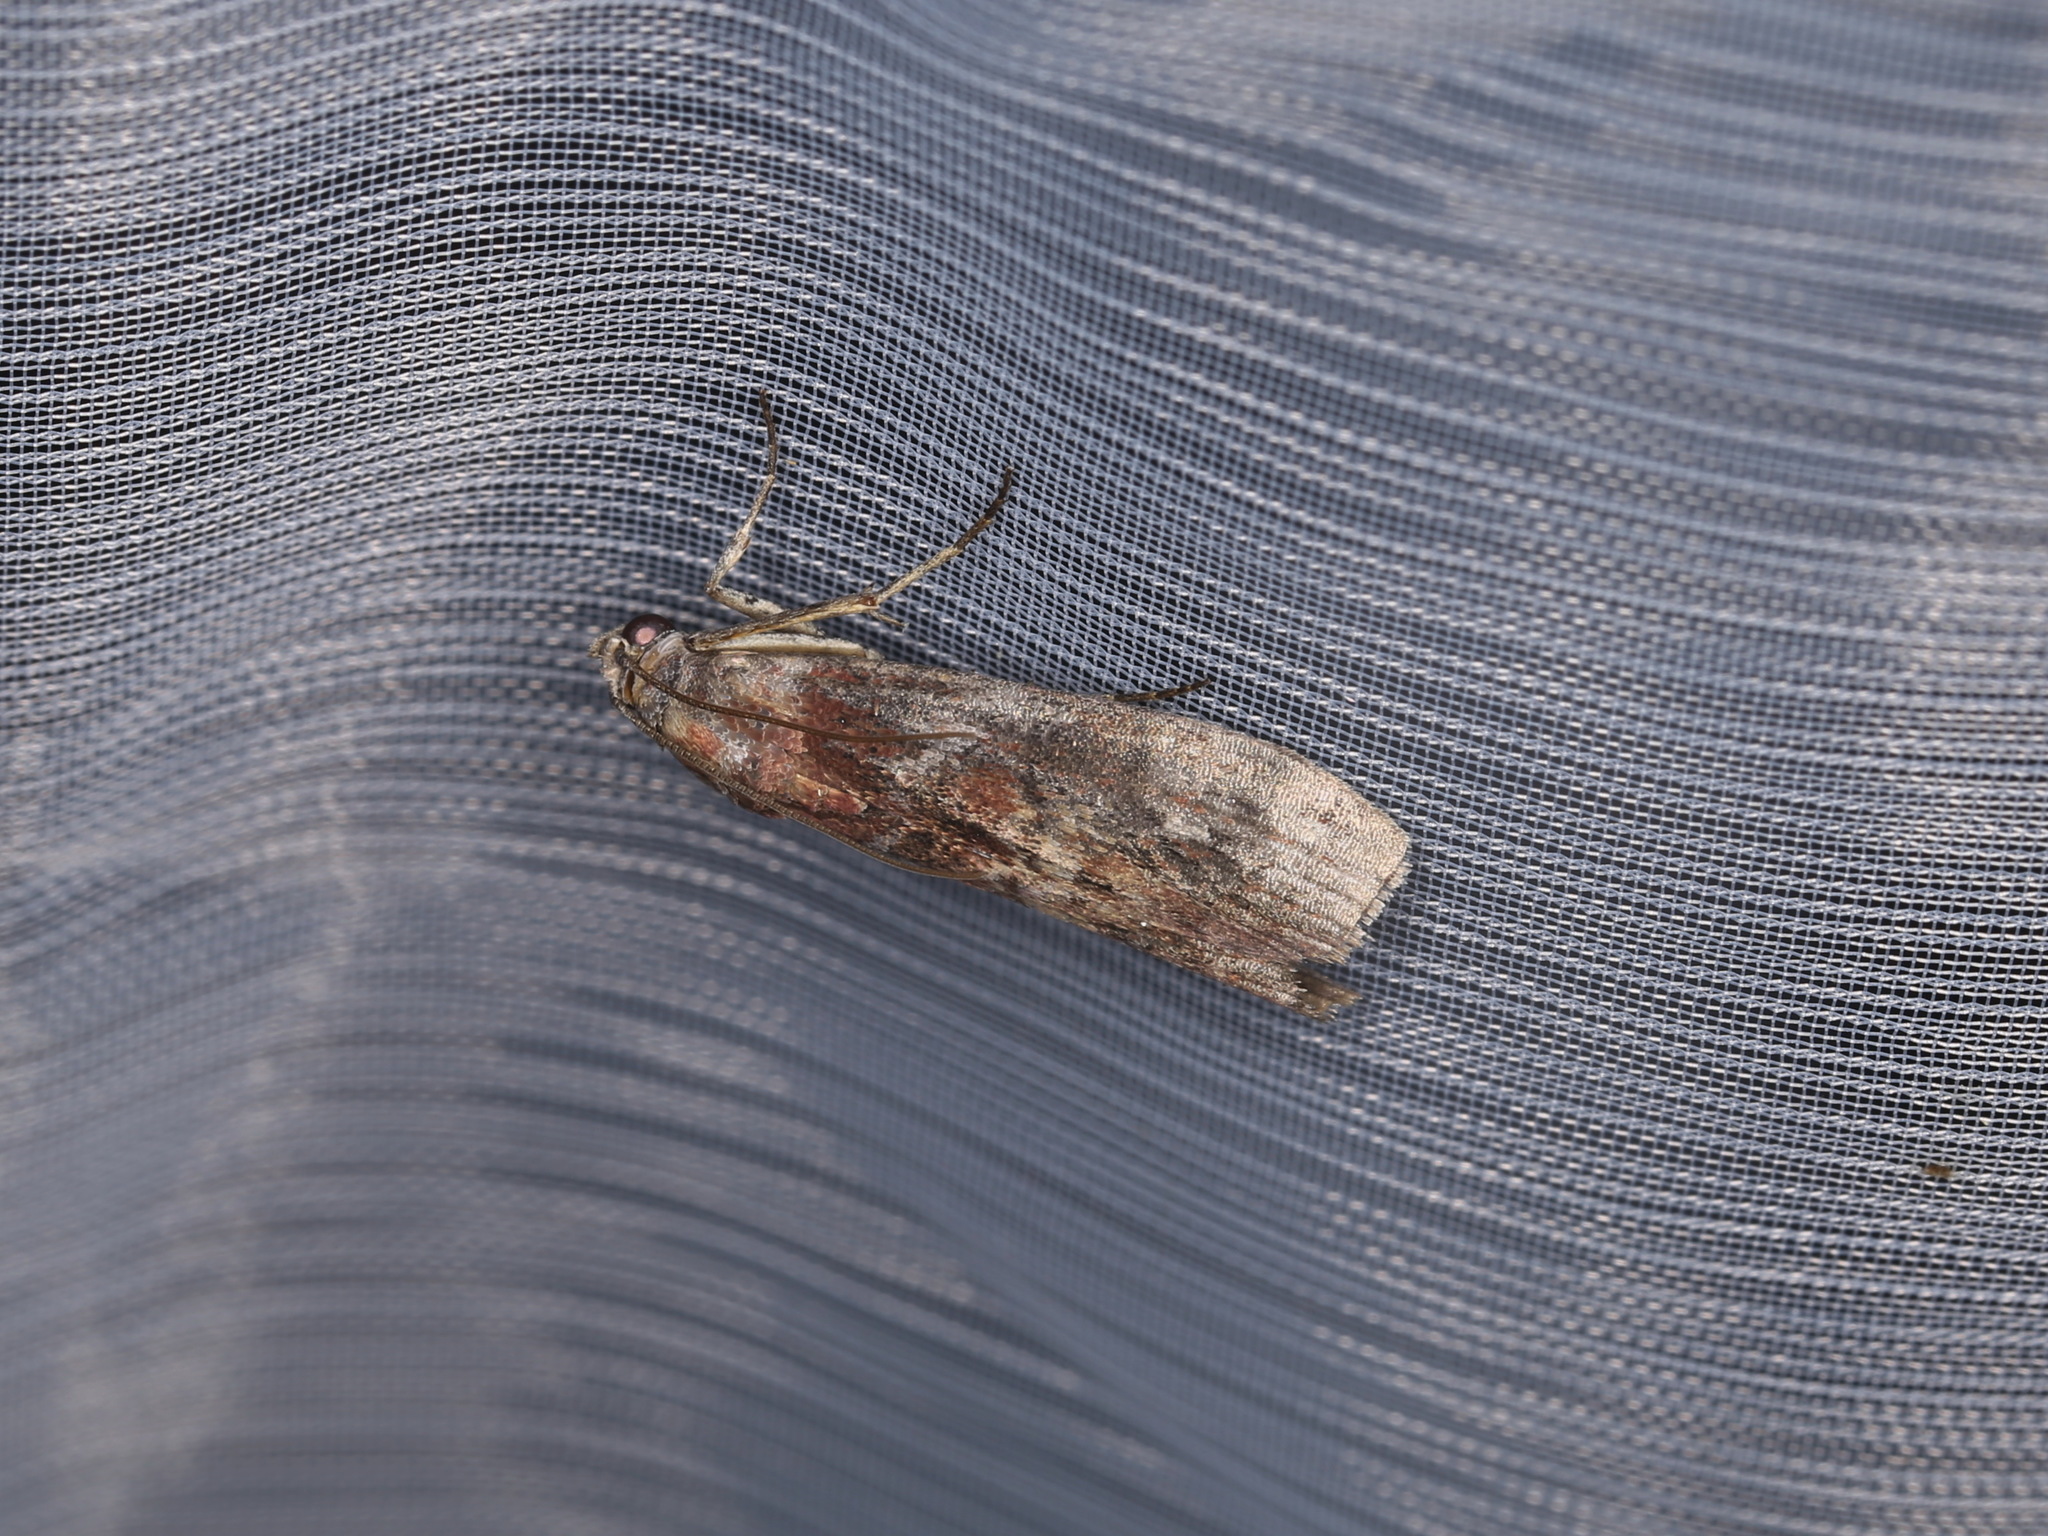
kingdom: Animalia
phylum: Arthropoda
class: Insecta
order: Lepidoptera
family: Pyralidae
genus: Phycita
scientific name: Phycita roborella
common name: Dotted oak knot-horn
